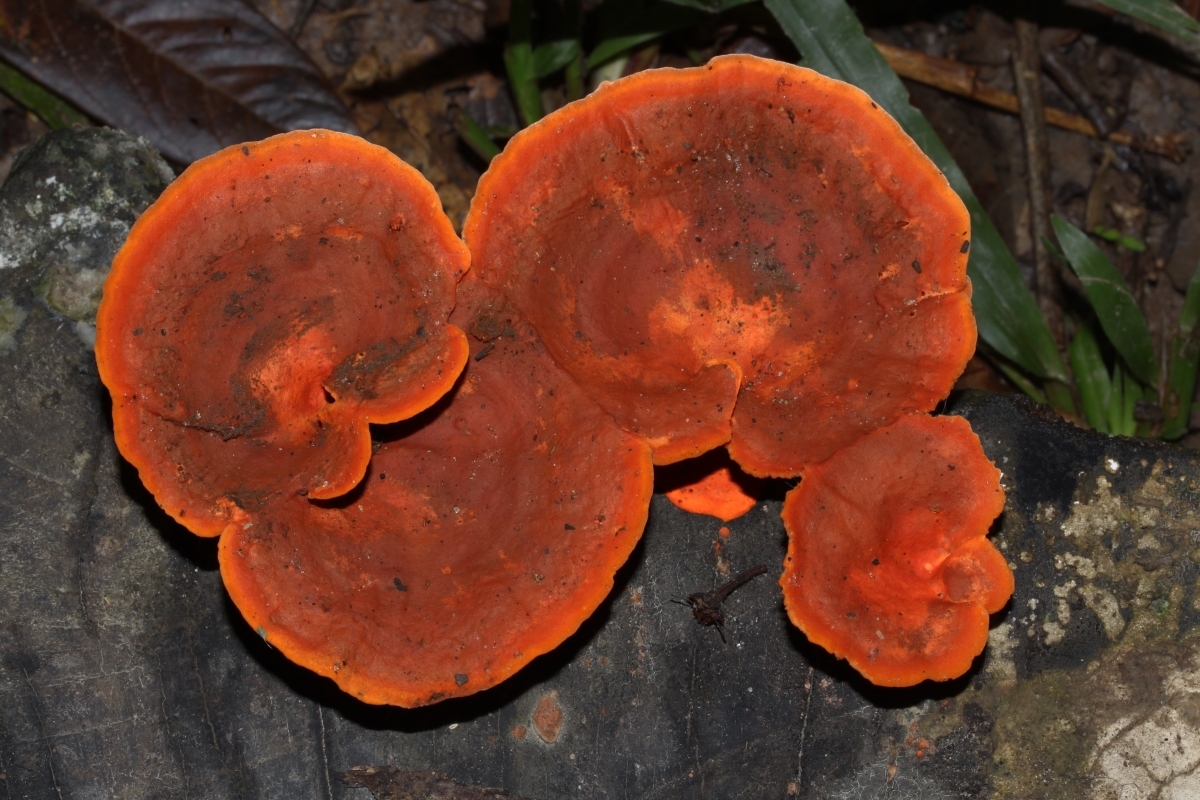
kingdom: Fungi
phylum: Basidiomycota
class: Agaricomycetes
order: Polyporales
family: Polyporaceae
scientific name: Polyporaceae
